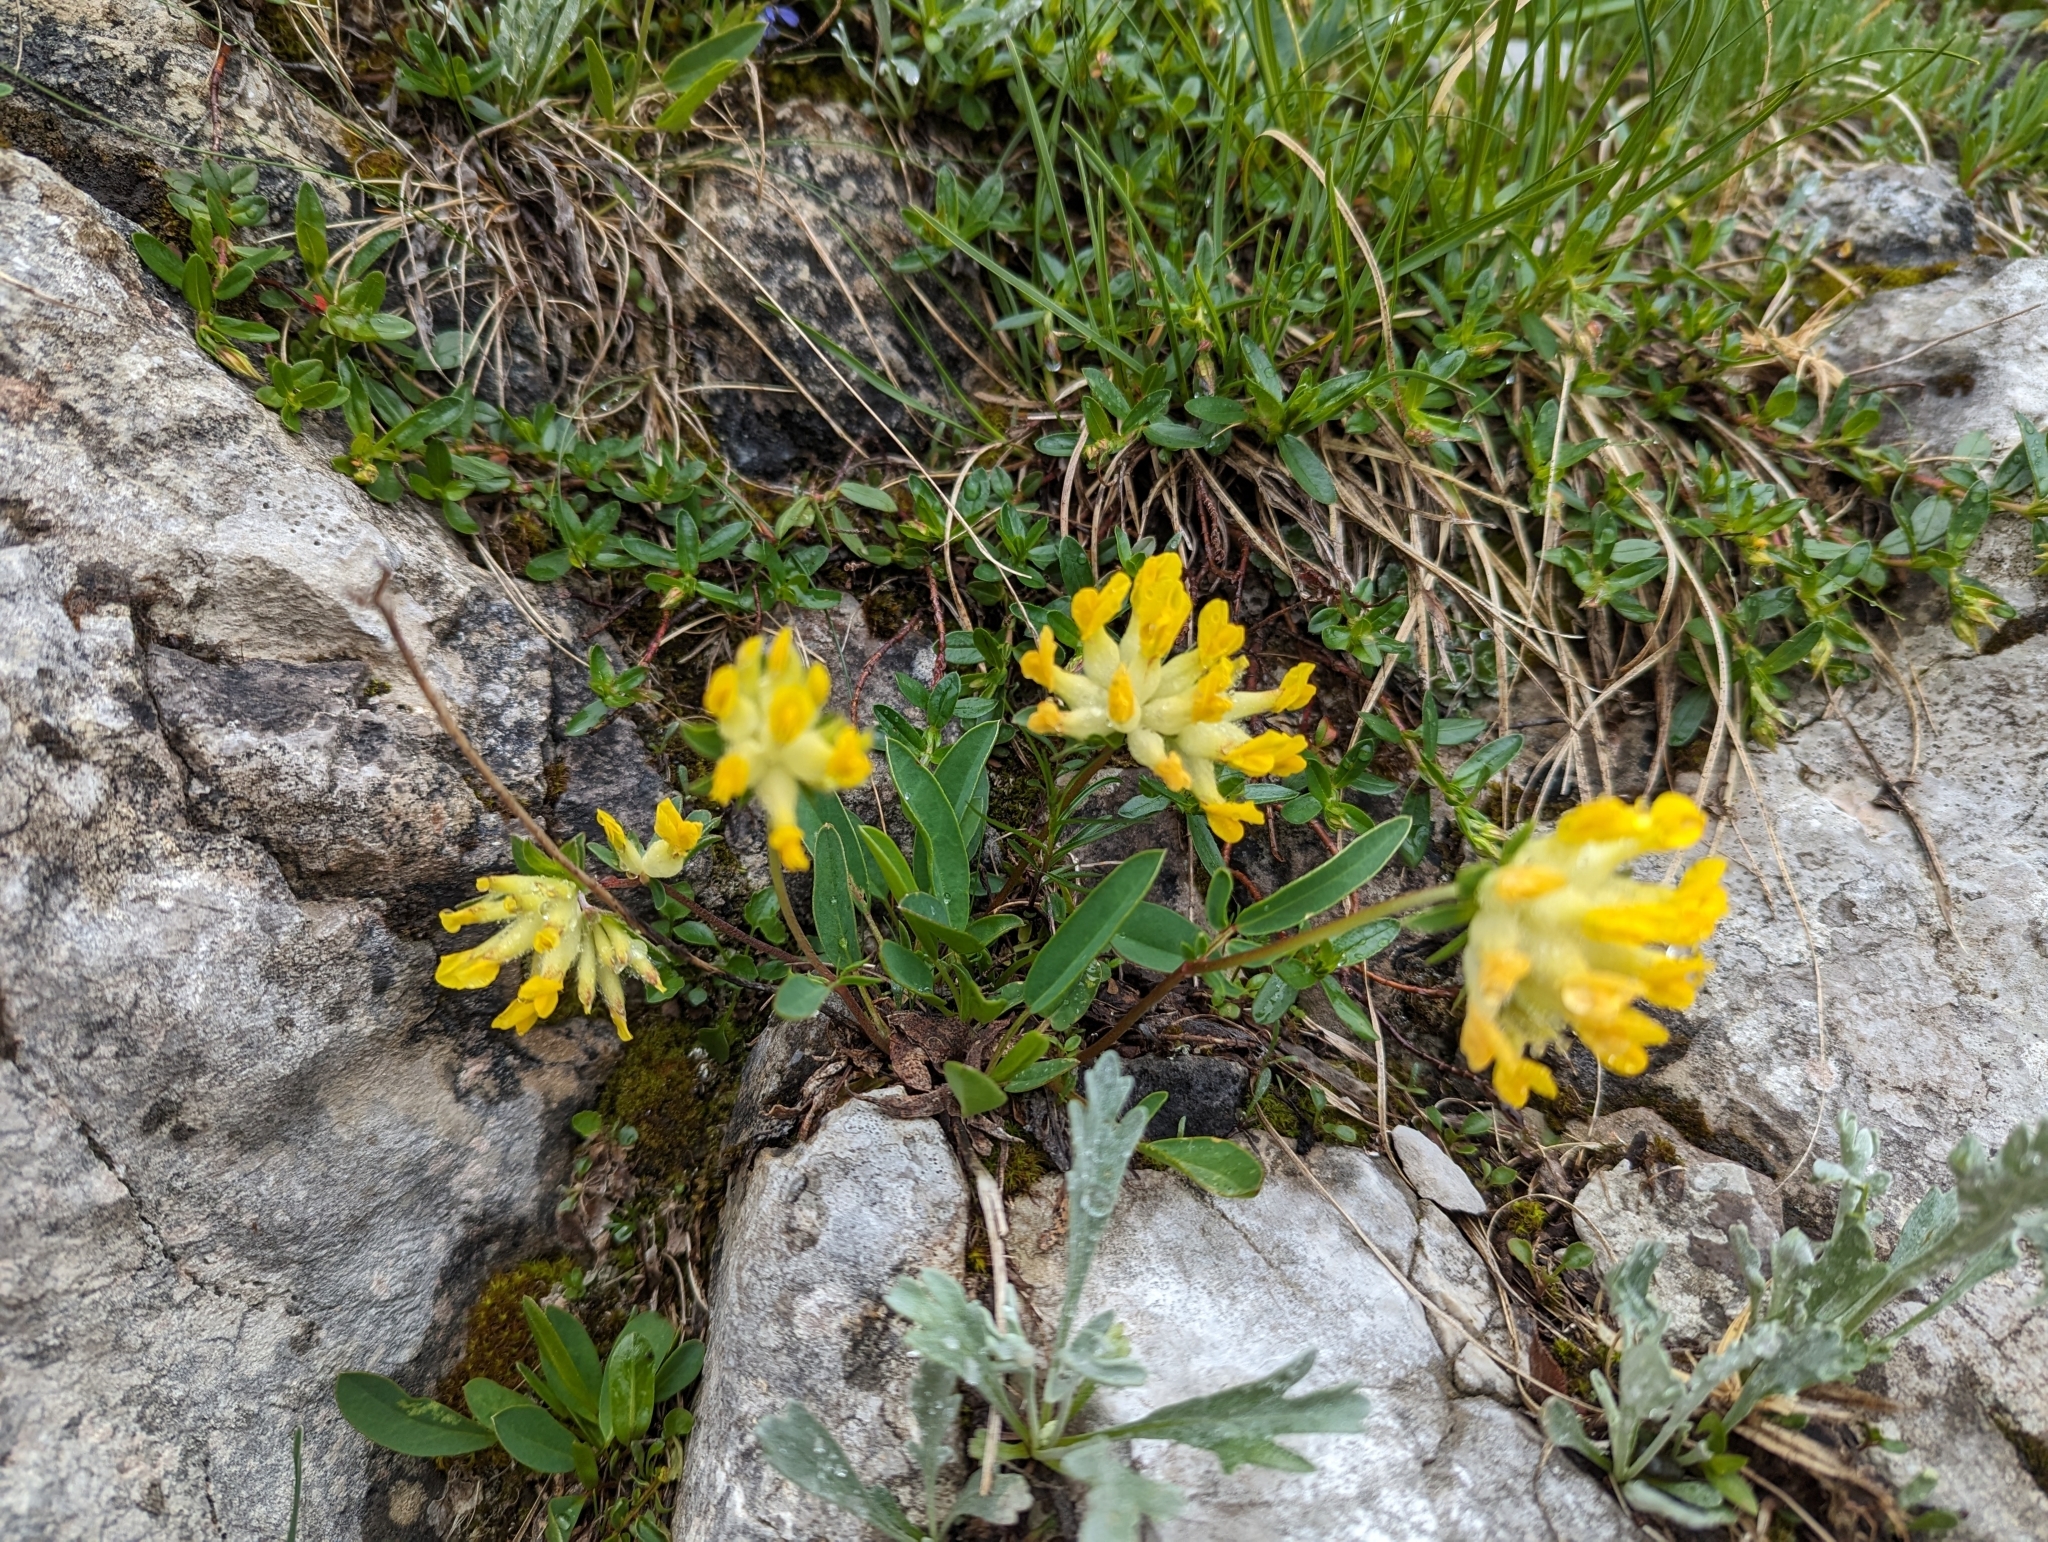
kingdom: Plantae
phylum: Tracheophyta
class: Magnoliopsida
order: Fabales
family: Fabaceae
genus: Anthyllis
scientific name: Anthyllis vulneraria
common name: Kidney vetch
